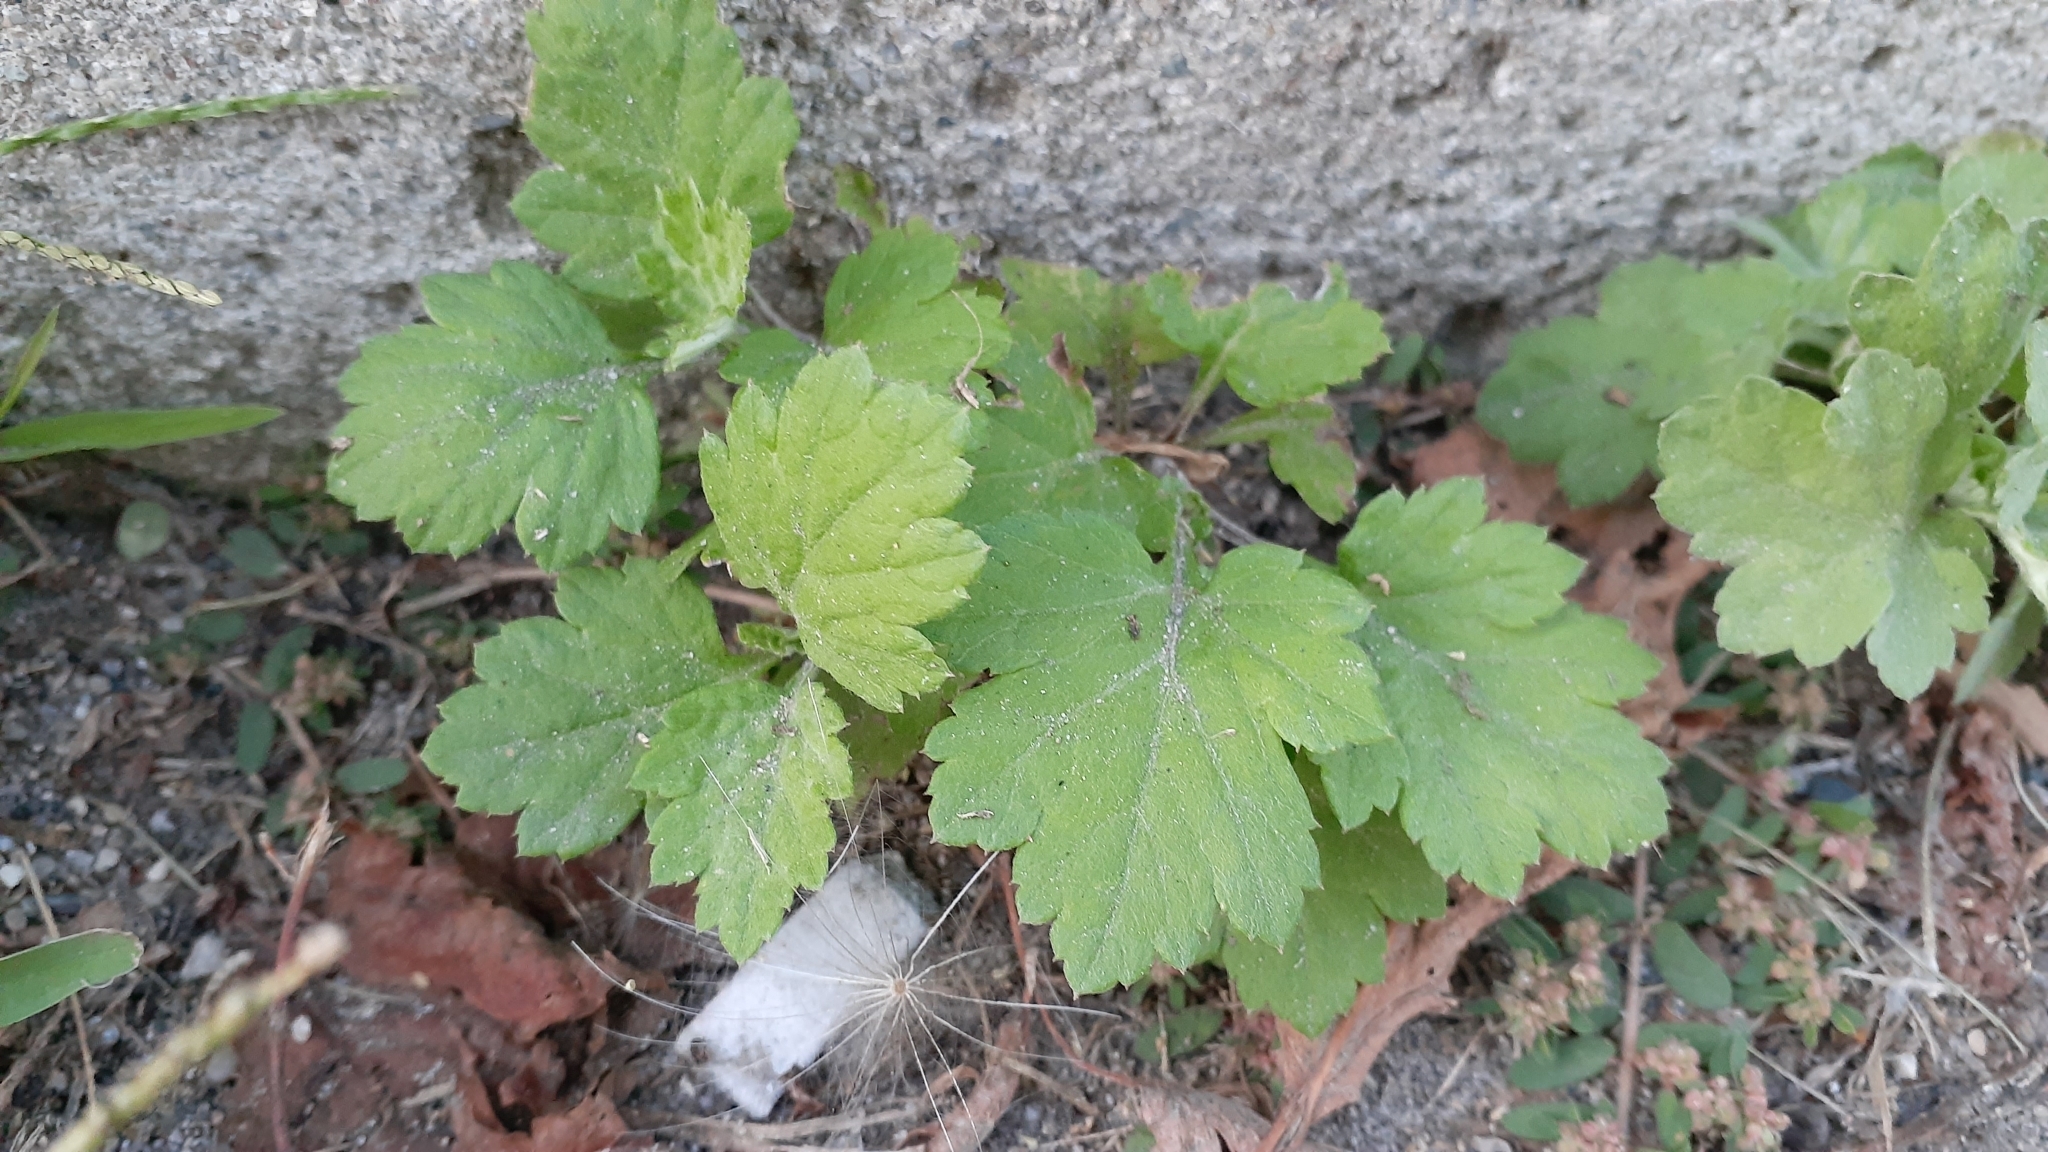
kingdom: Plantae
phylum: Tracheophyta
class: Magnoliopsida
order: Asterales
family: Asteraceae
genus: Artemisia
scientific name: Artemisia vulgaris
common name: Mugwort
